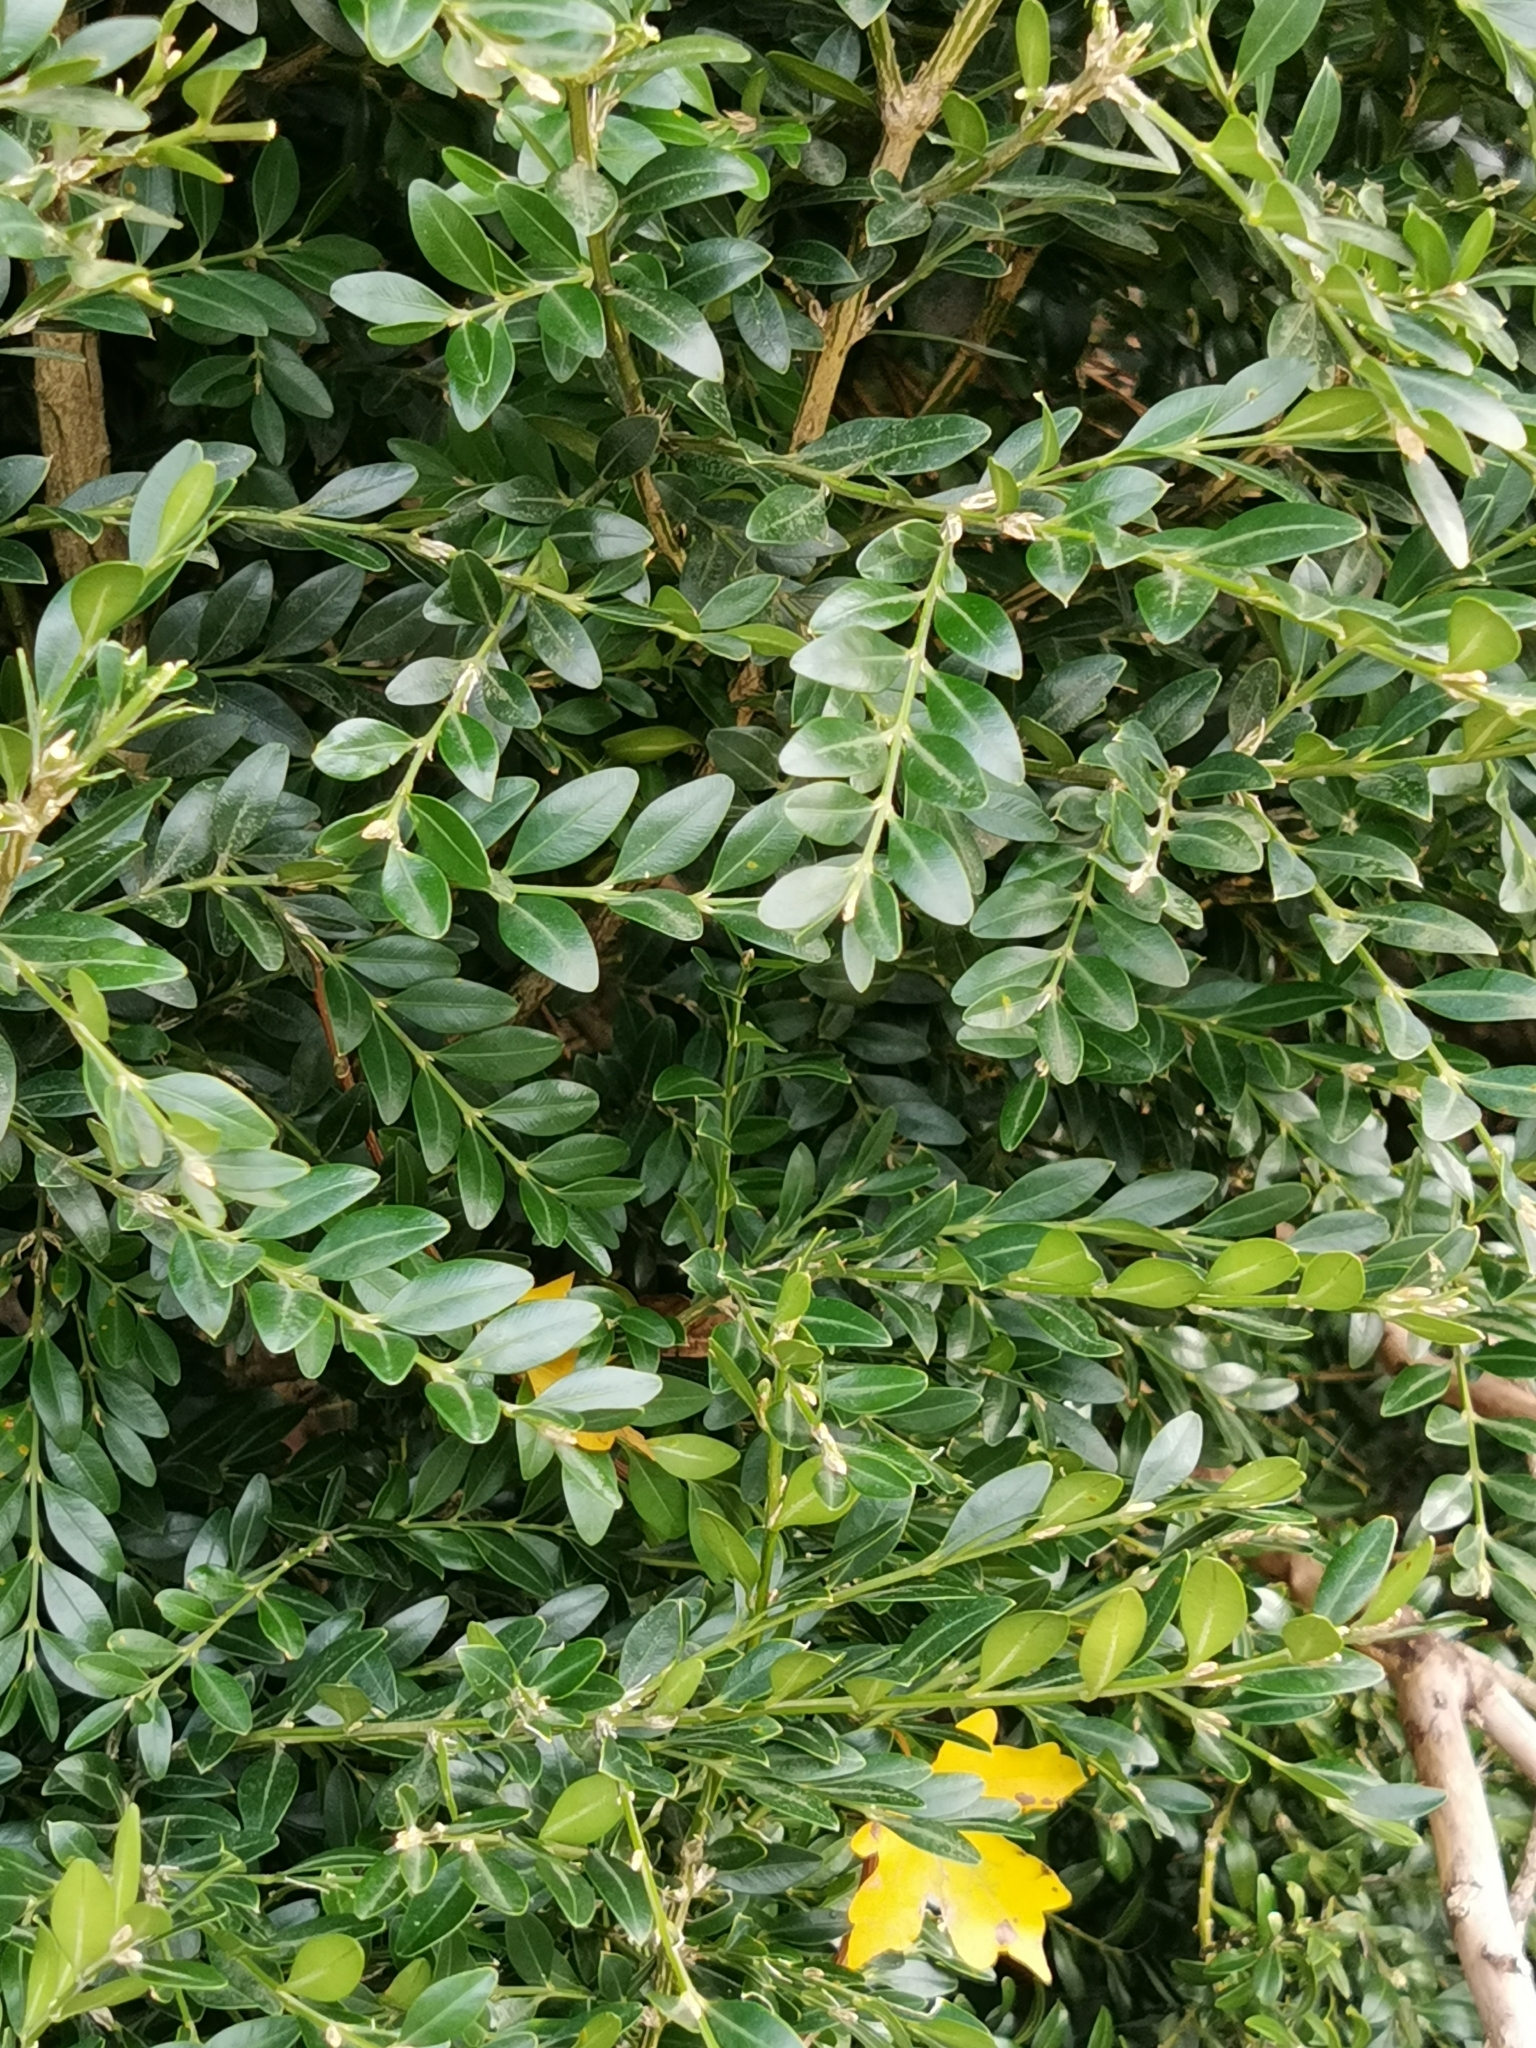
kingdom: Plantae
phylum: Tracheophyta
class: Magnoliopsida
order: Buxales
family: Buxaceae
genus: Buxus
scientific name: Buxus sempervirens
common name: Box
